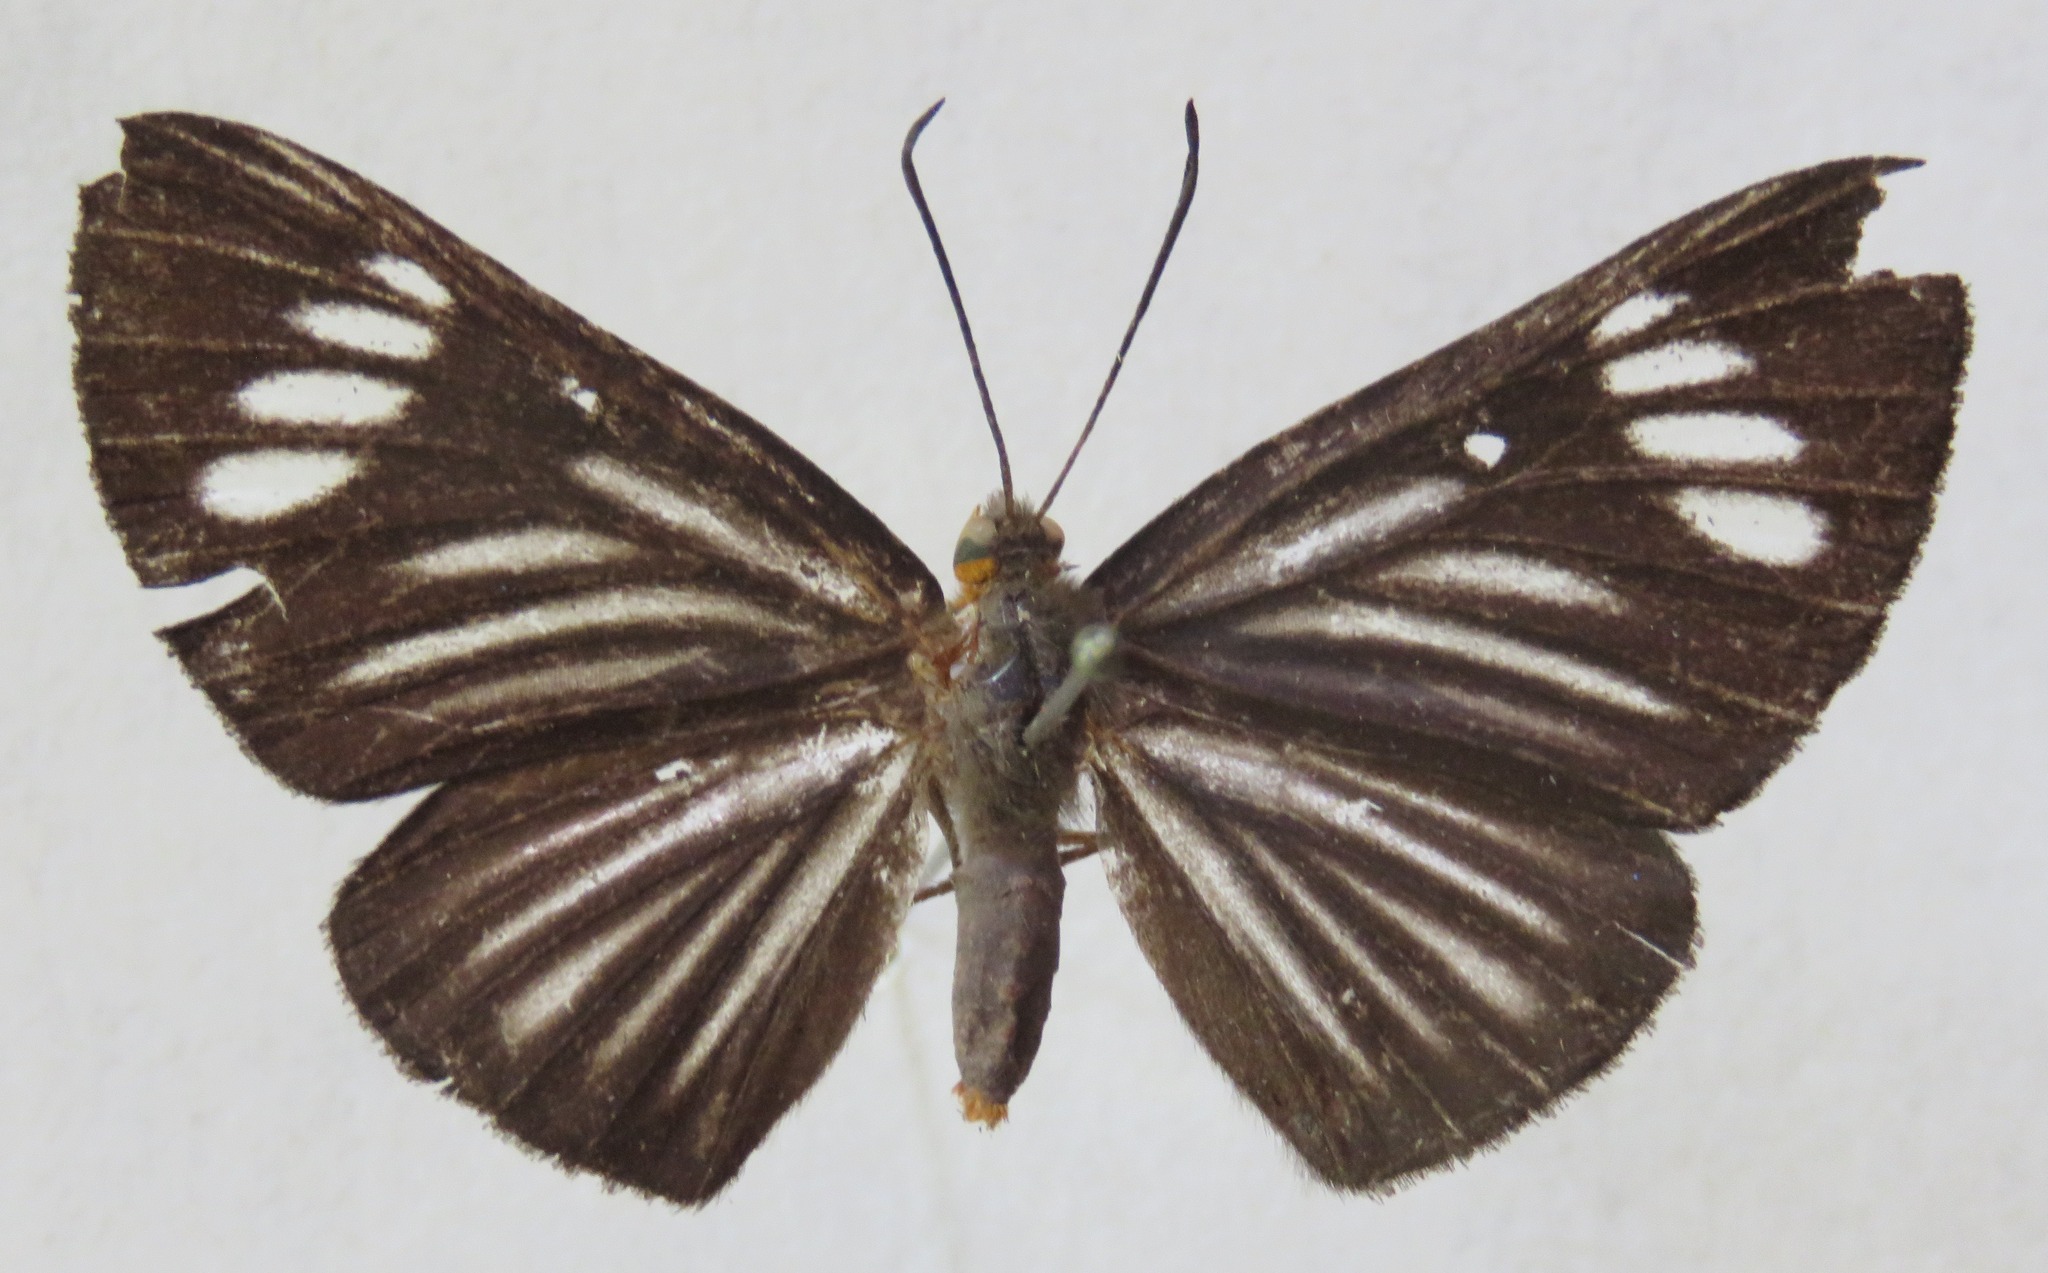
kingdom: Animalia
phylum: Arthropoda
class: Insecta
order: Lepidoptera
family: Riodinidae
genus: Pheles
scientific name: Pheles strigosa
